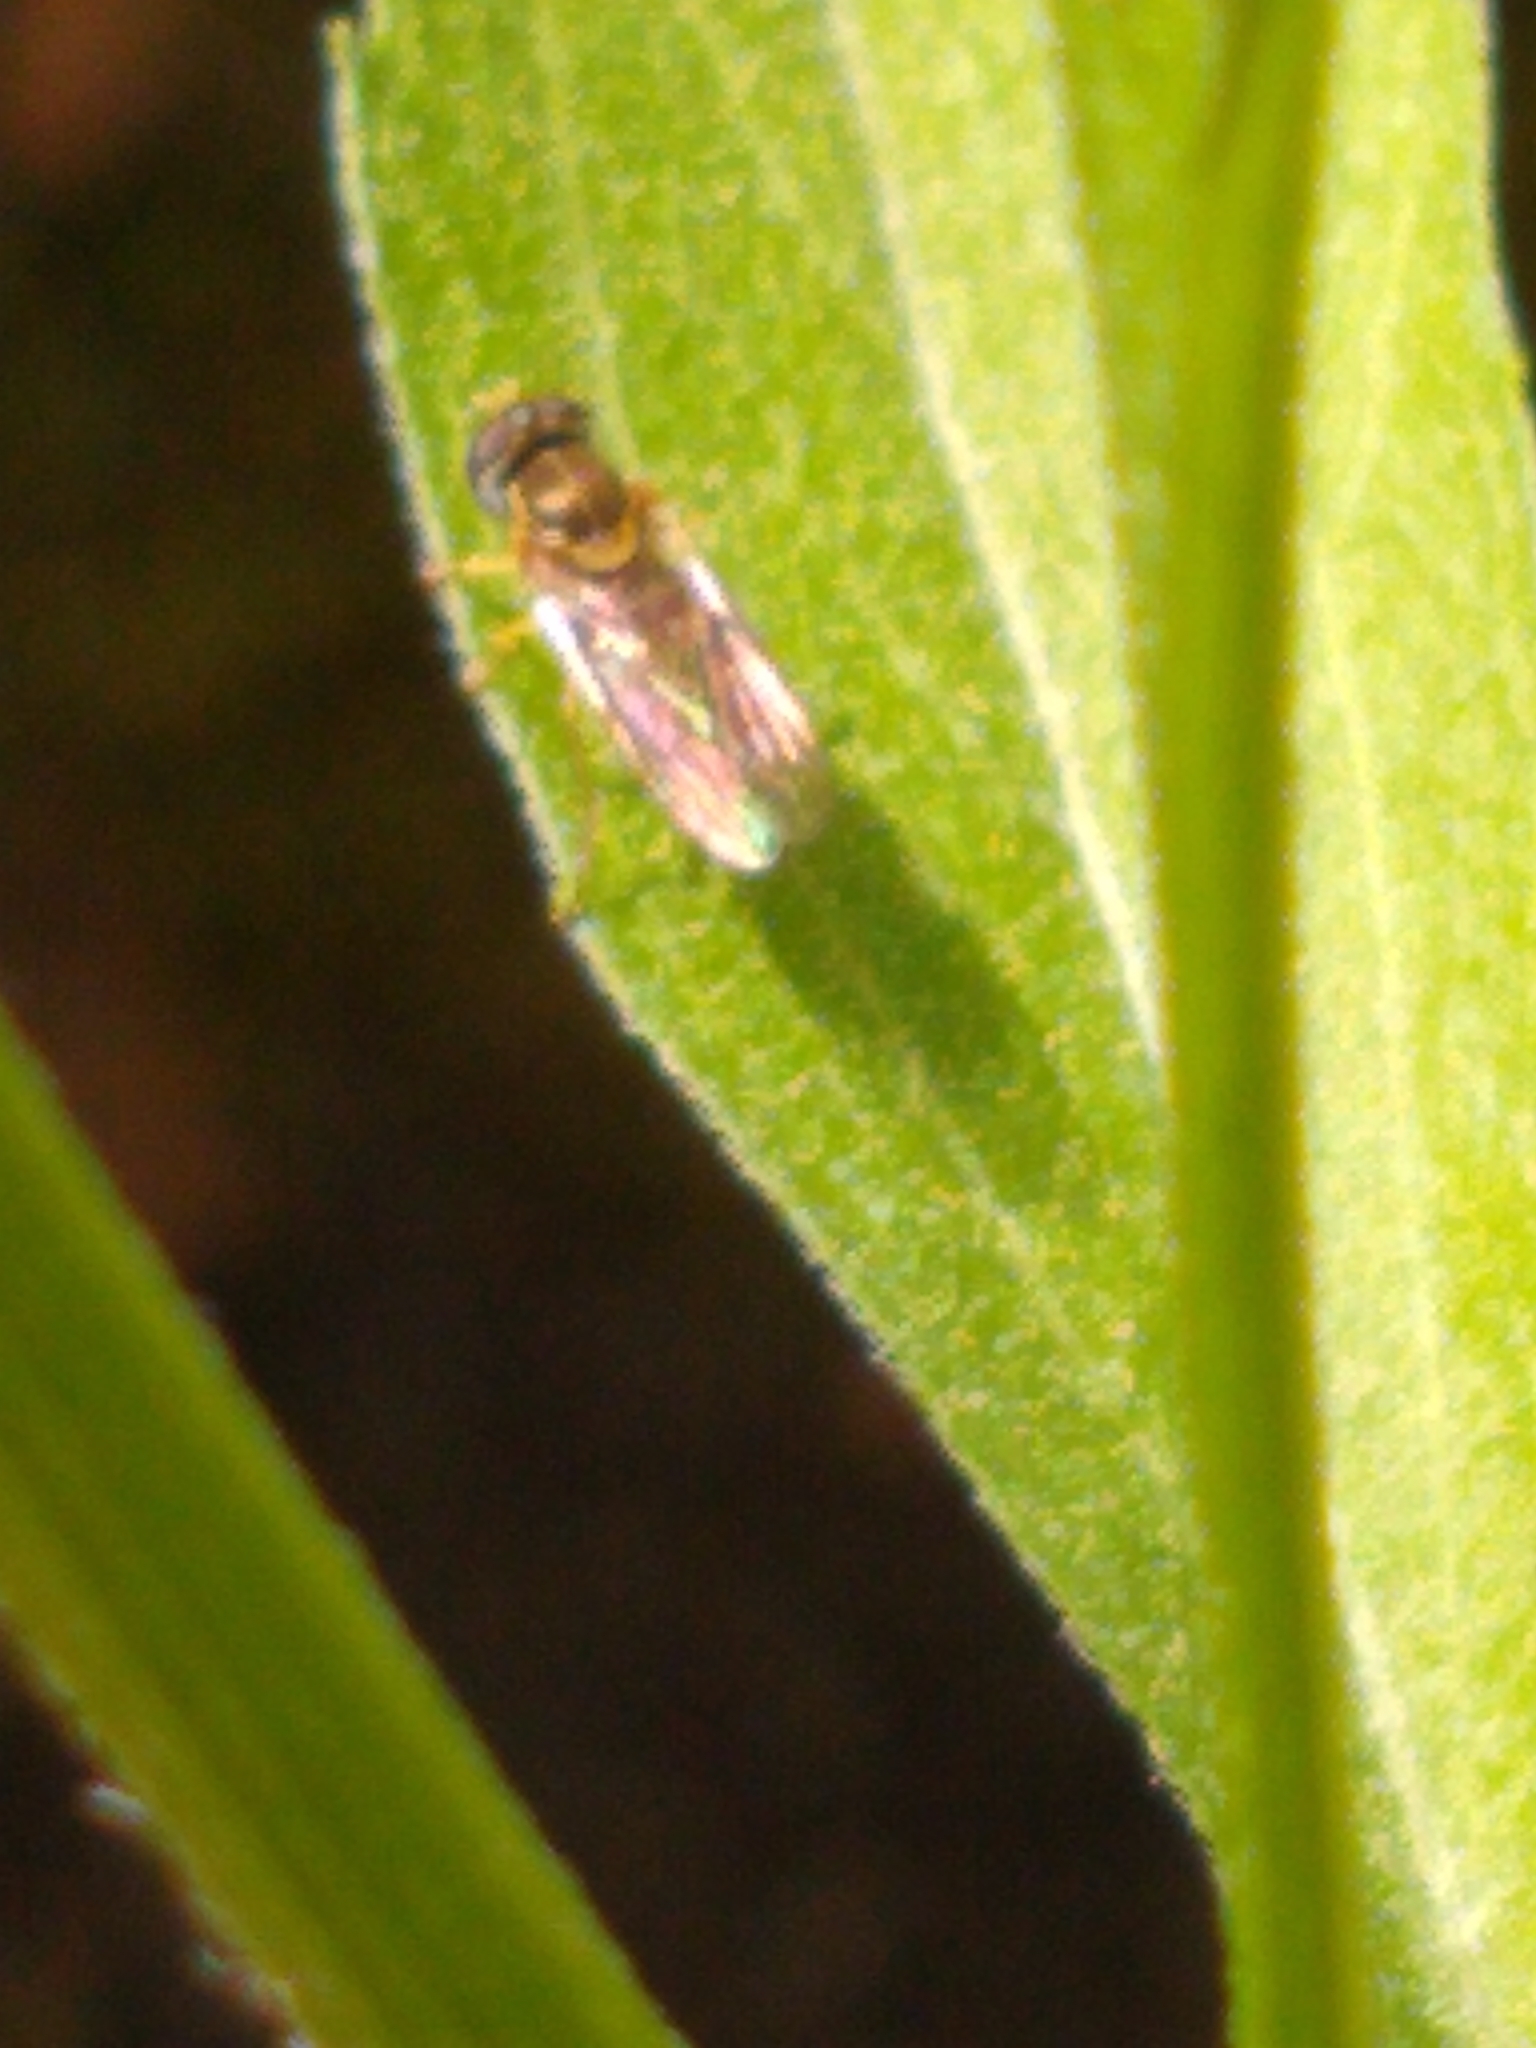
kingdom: Animalia
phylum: Arthropoda
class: Insecta
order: Diptera
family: Syrphidae
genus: Toxomerus
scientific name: Toxomerus marginatus
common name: Syrphid fly
